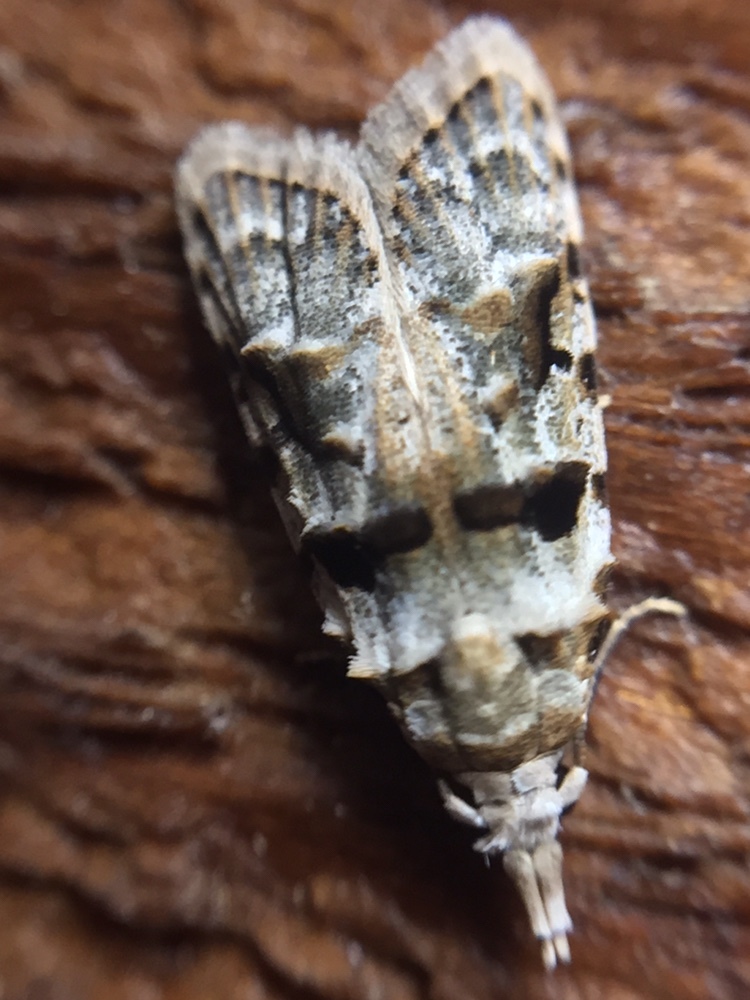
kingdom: Animalia
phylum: Arthropoda
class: Insecta
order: Lepidoptera
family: Carposinidae
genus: Coscinoptycha
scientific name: Coscinoptycha improbana
